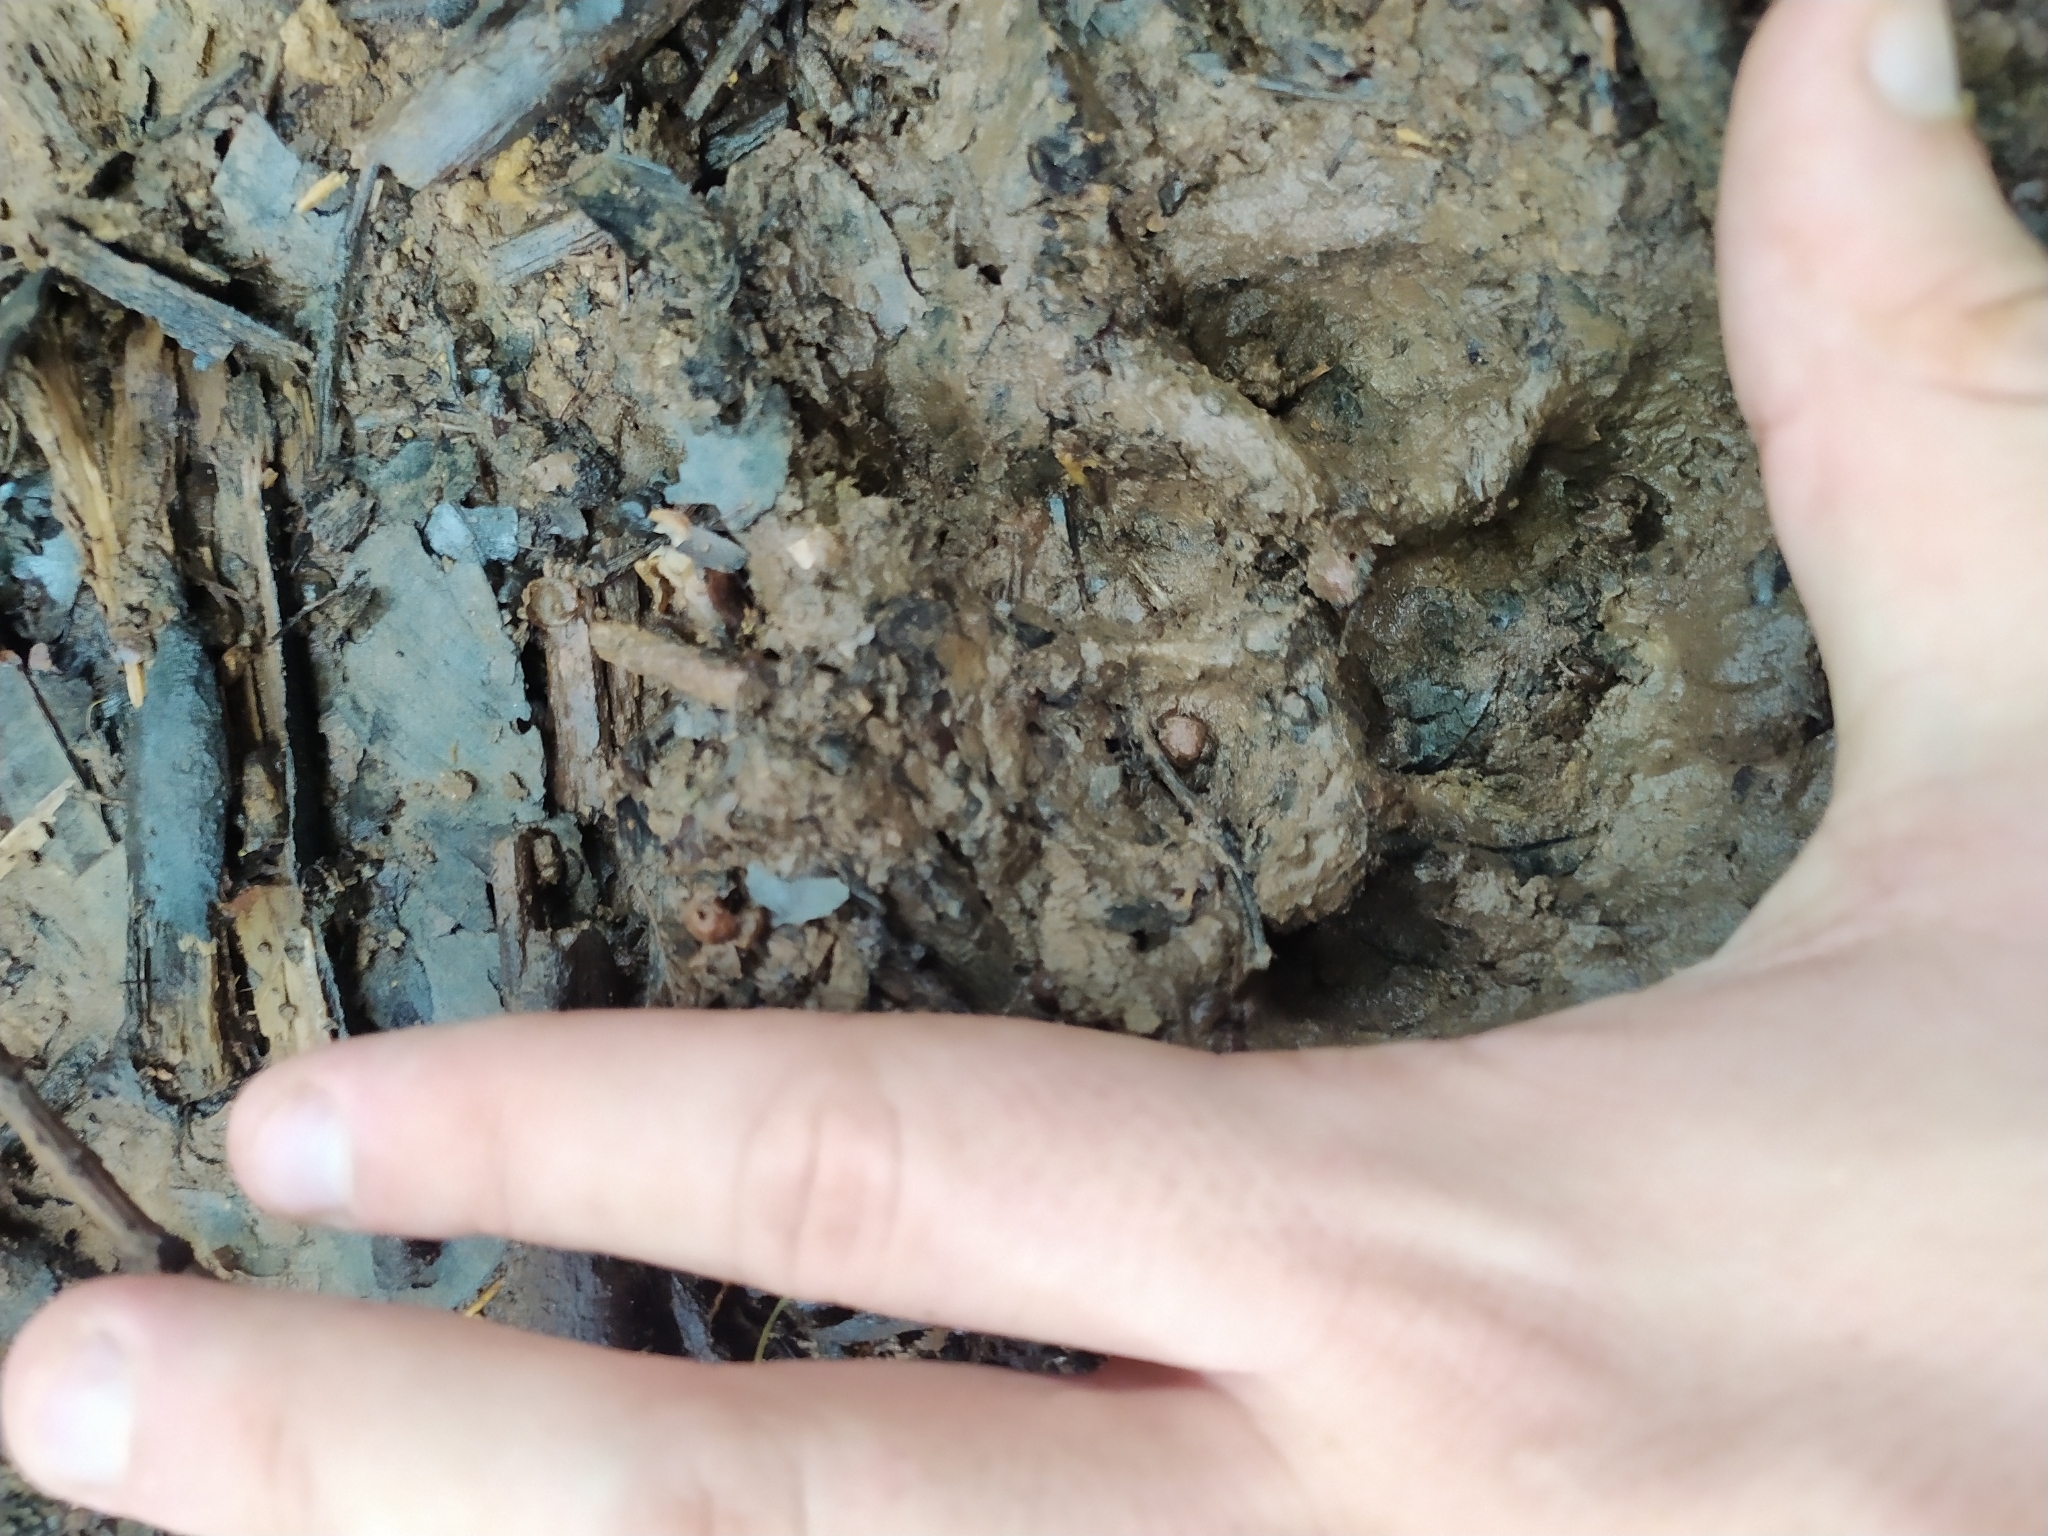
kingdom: Animalia
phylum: Chordata
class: Mammalia
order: Carnivora
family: Felidae
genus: Leopardus
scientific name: Leopardus
